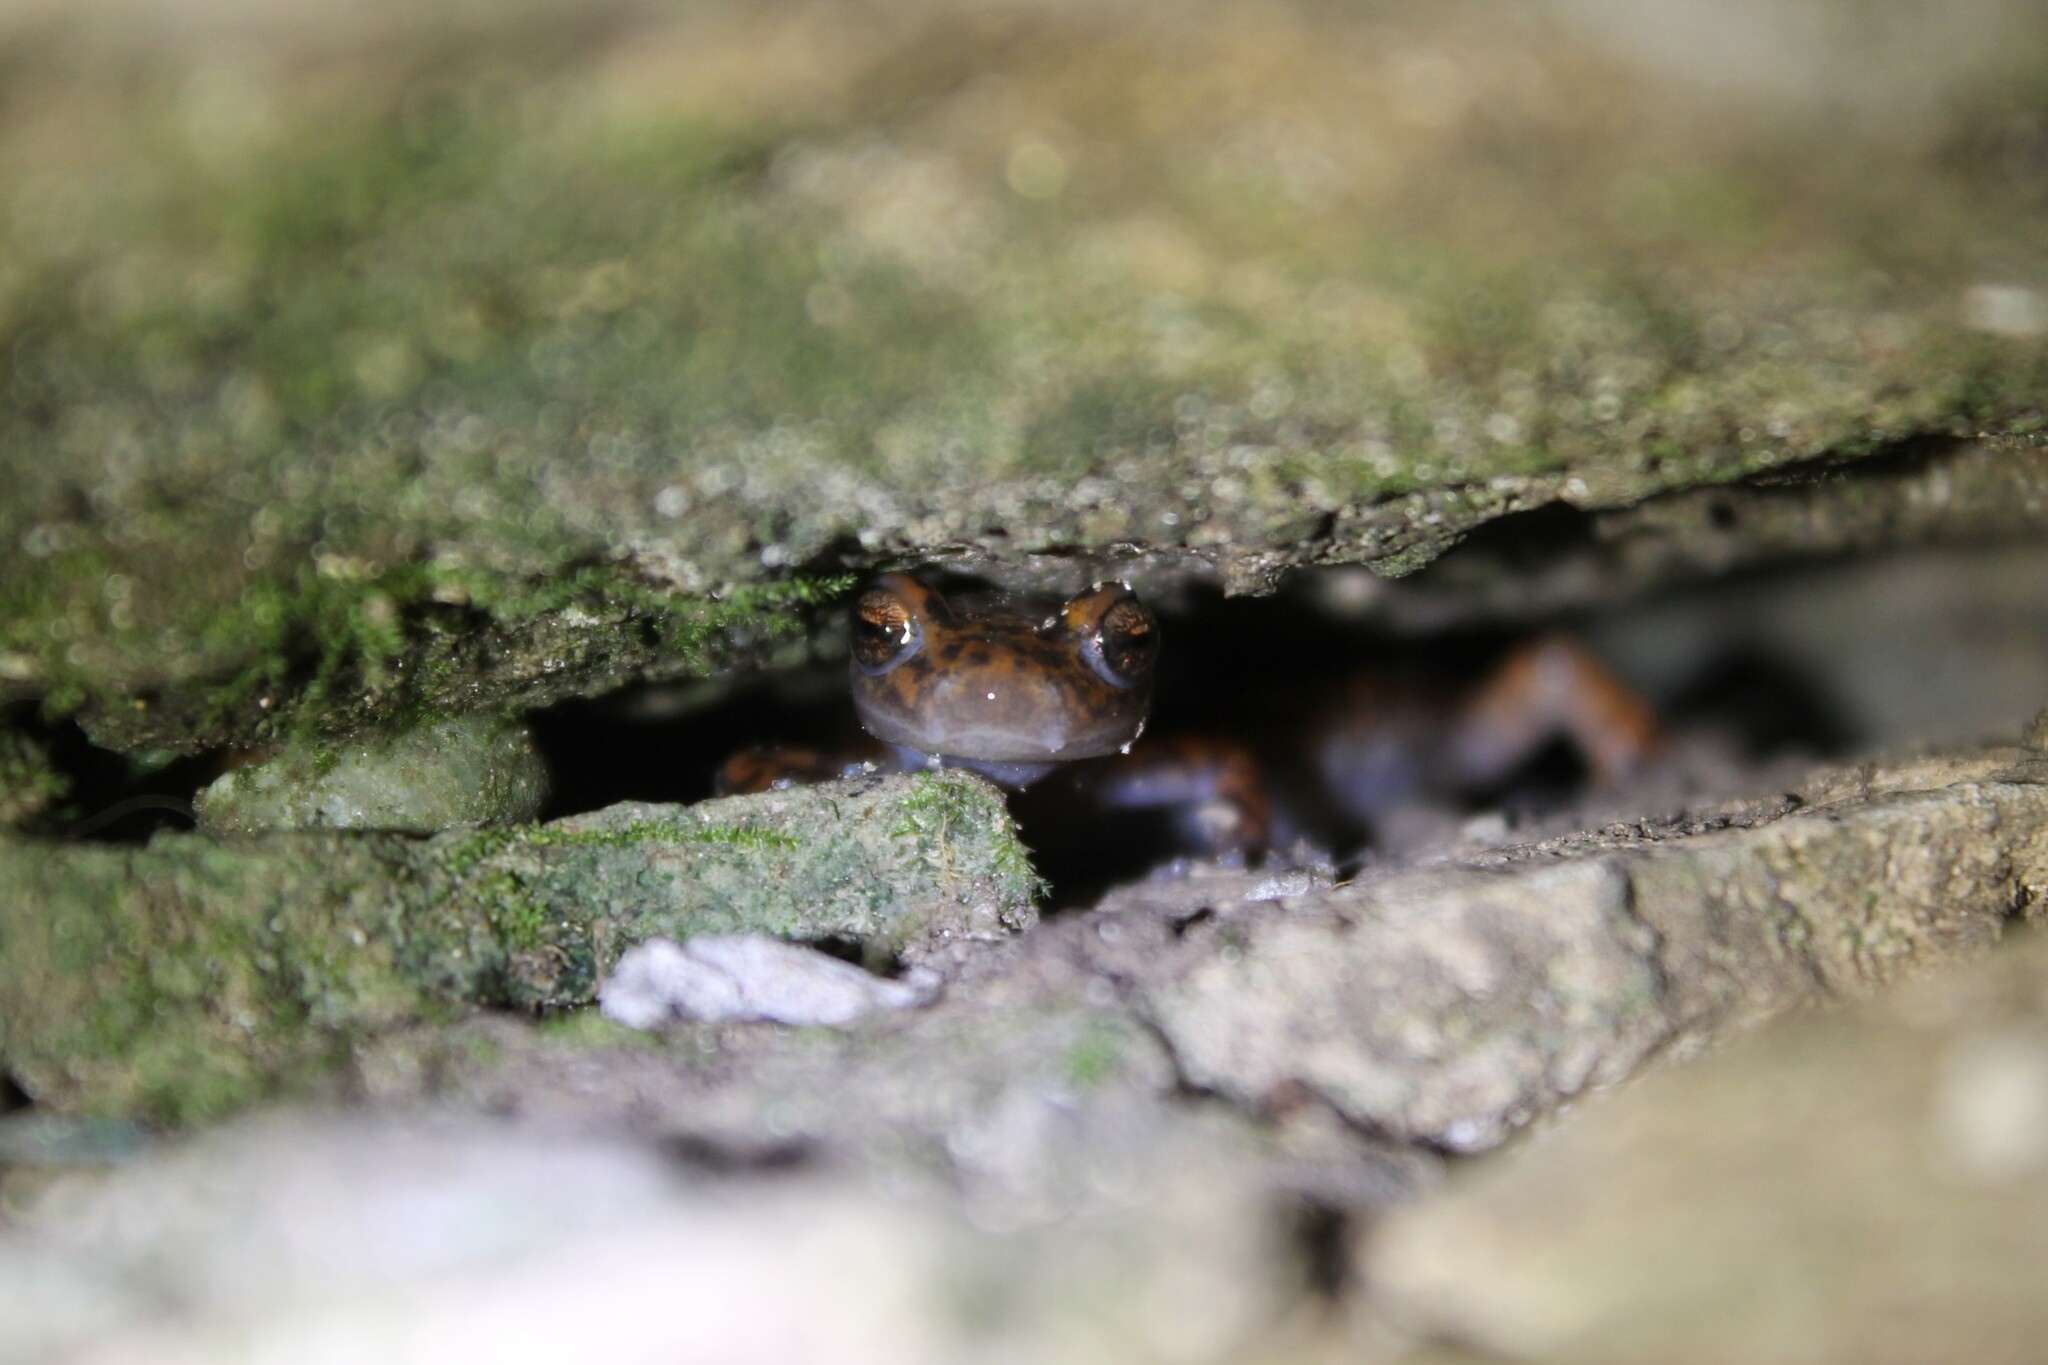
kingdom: Animalia
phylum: Chordata
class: Amphibia
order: Caudata
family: Plethodontidae
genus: Eurycea
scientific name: Eurycea lucifuga
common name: Cave salamander
